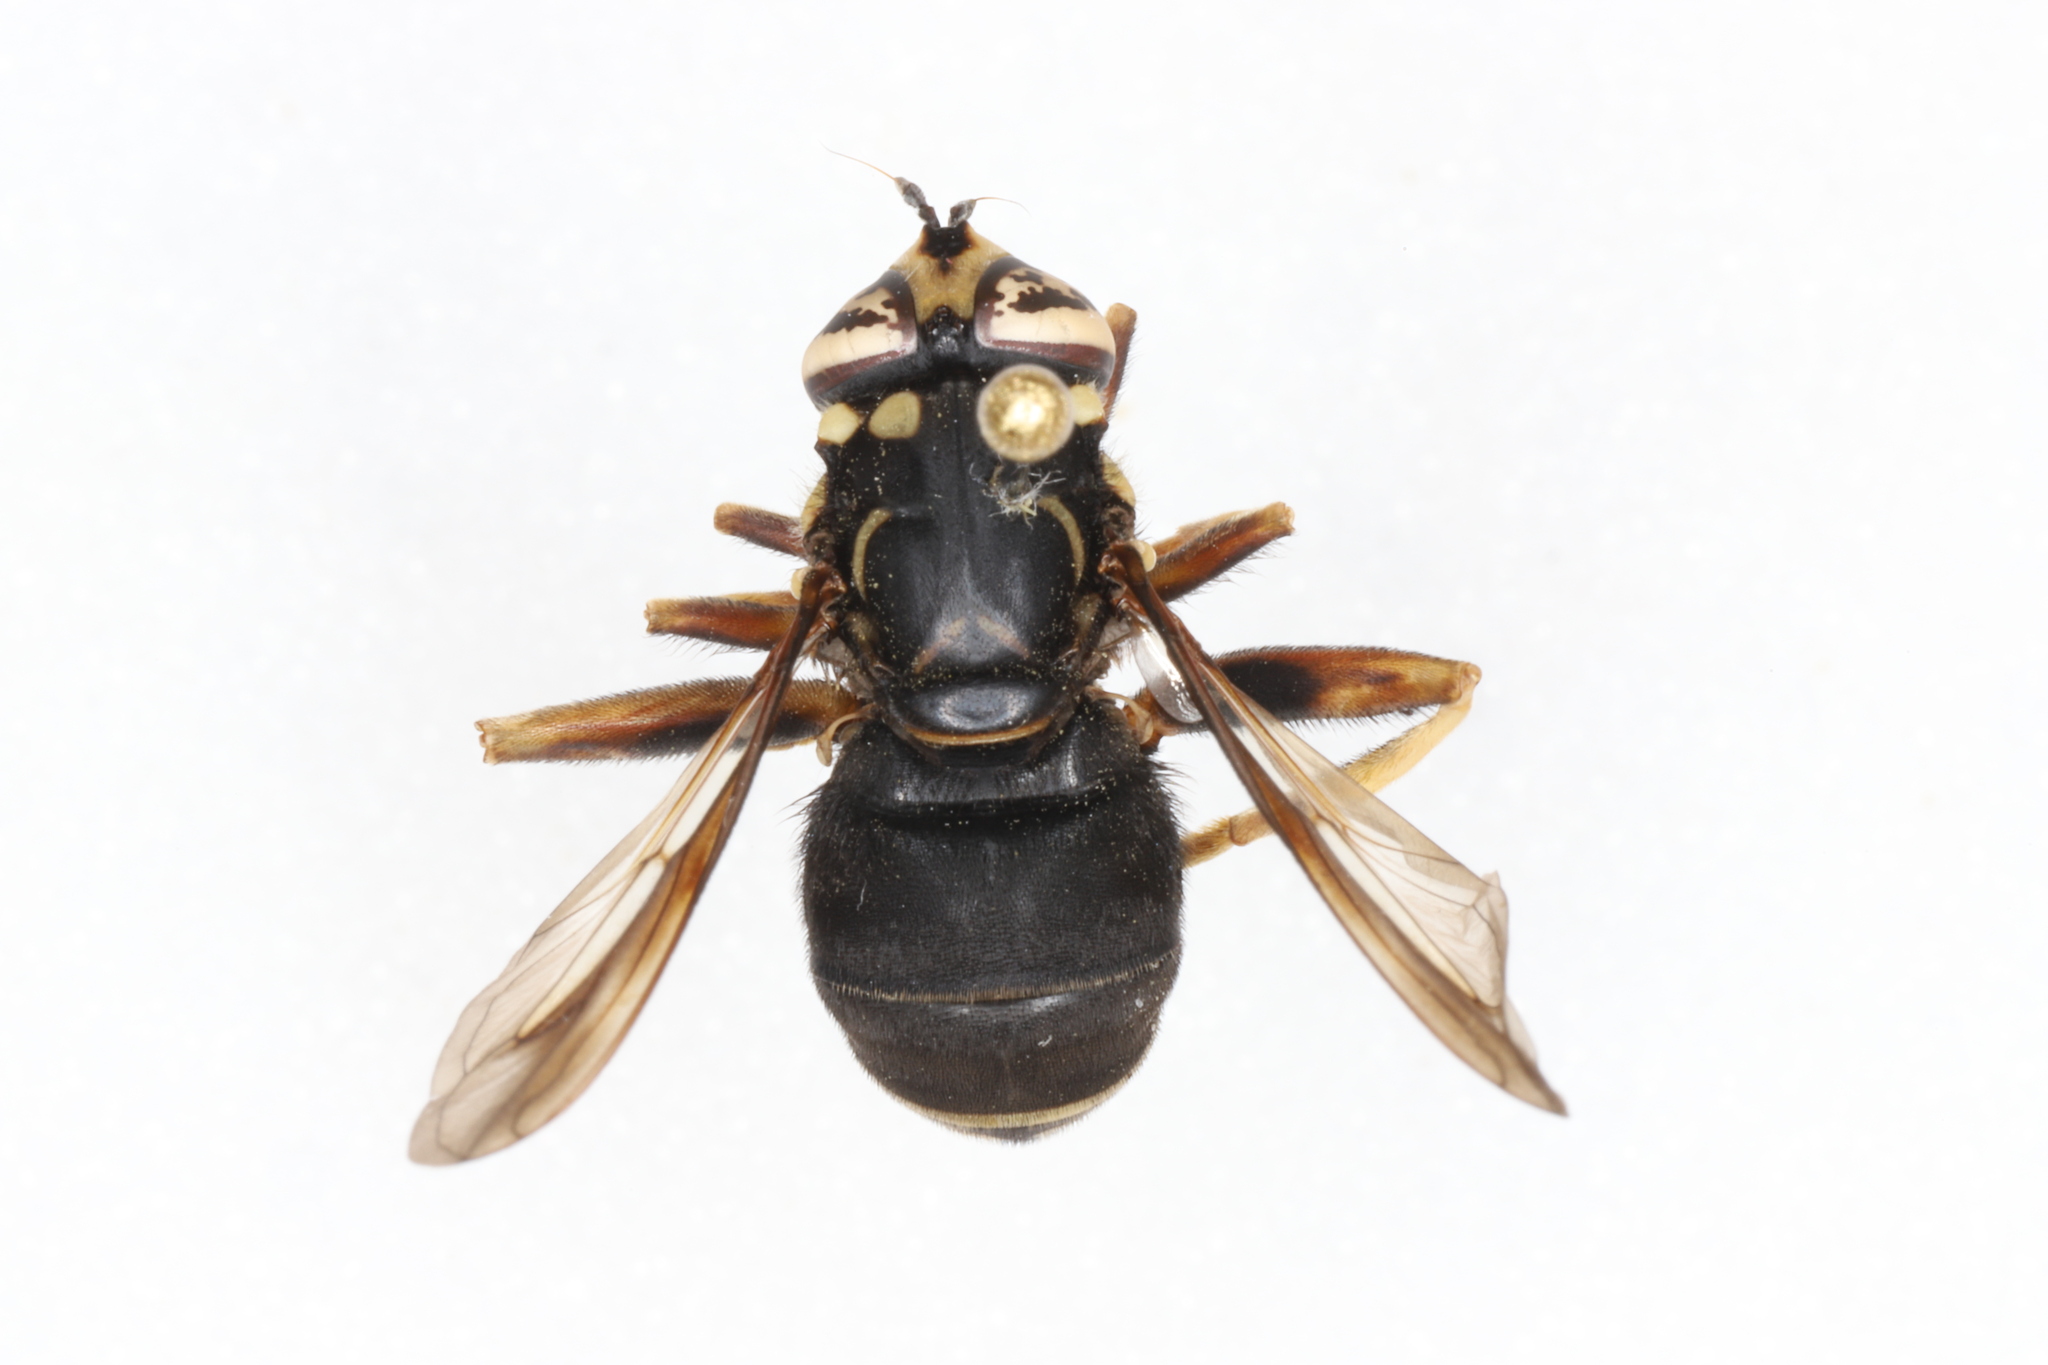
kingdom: Animalia
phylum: Arthropoda
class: Insecta
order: Diptera
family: Syrphidae
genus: Spilomyia
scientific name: Spilomyia fusca
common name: Bald-faced hornet fly
